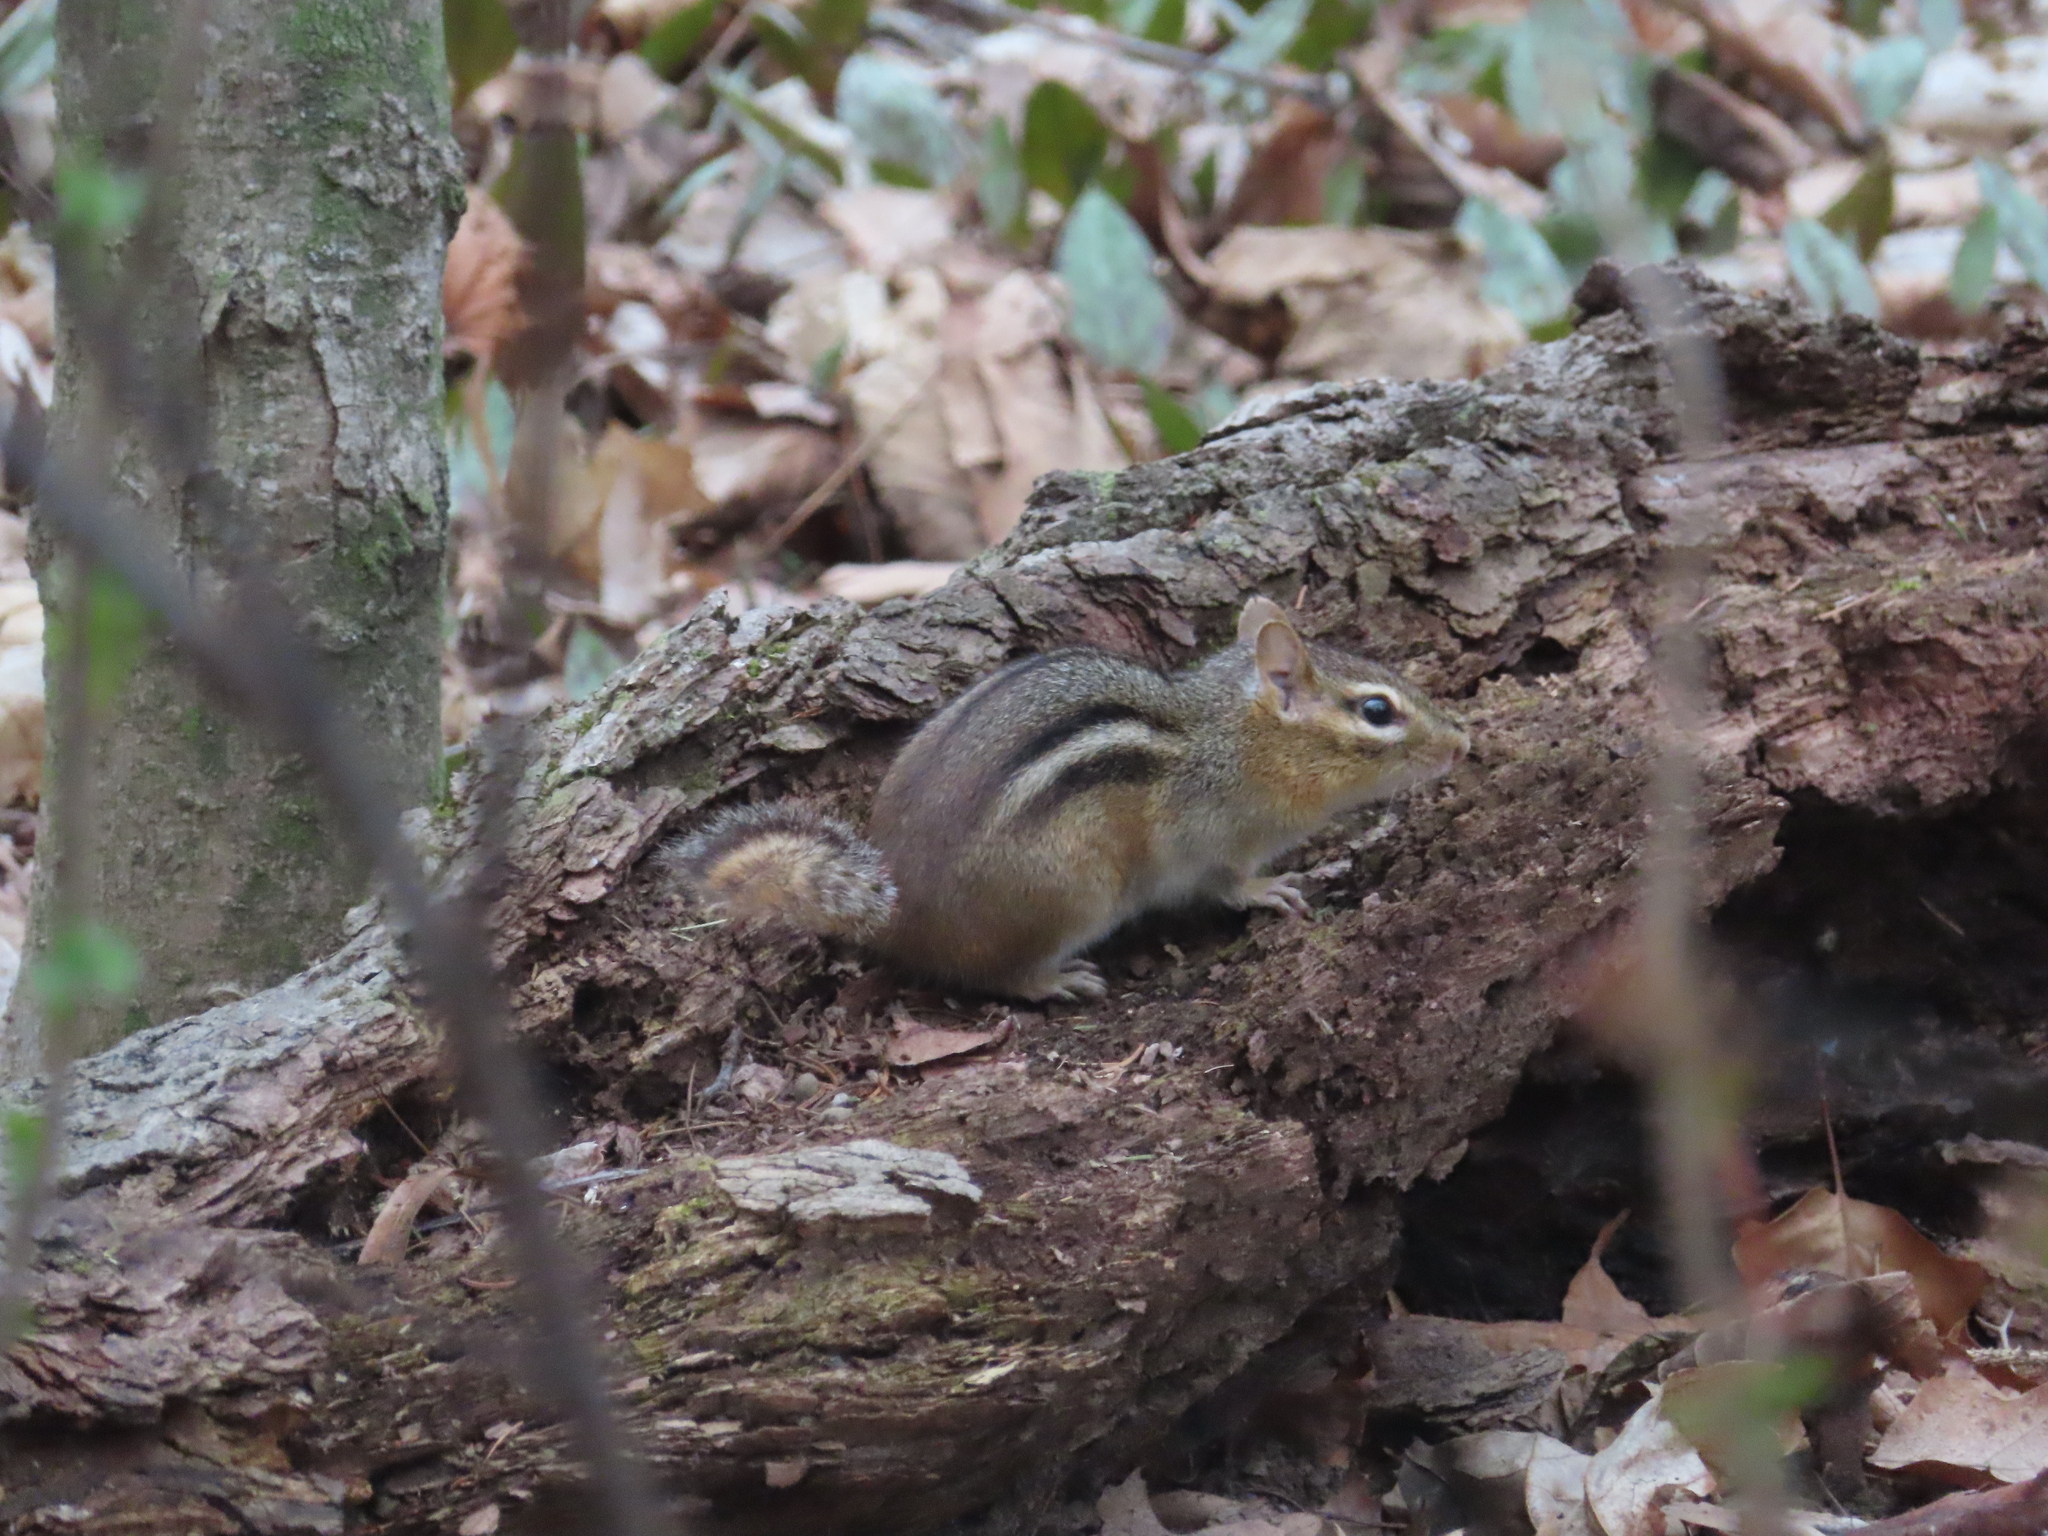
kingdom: Animalia
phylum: Chordata
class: Mammalia
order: Rodentia
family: Sciuridae
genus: Tamias
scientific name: Tamias striatus
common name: Eastern chipmunk
